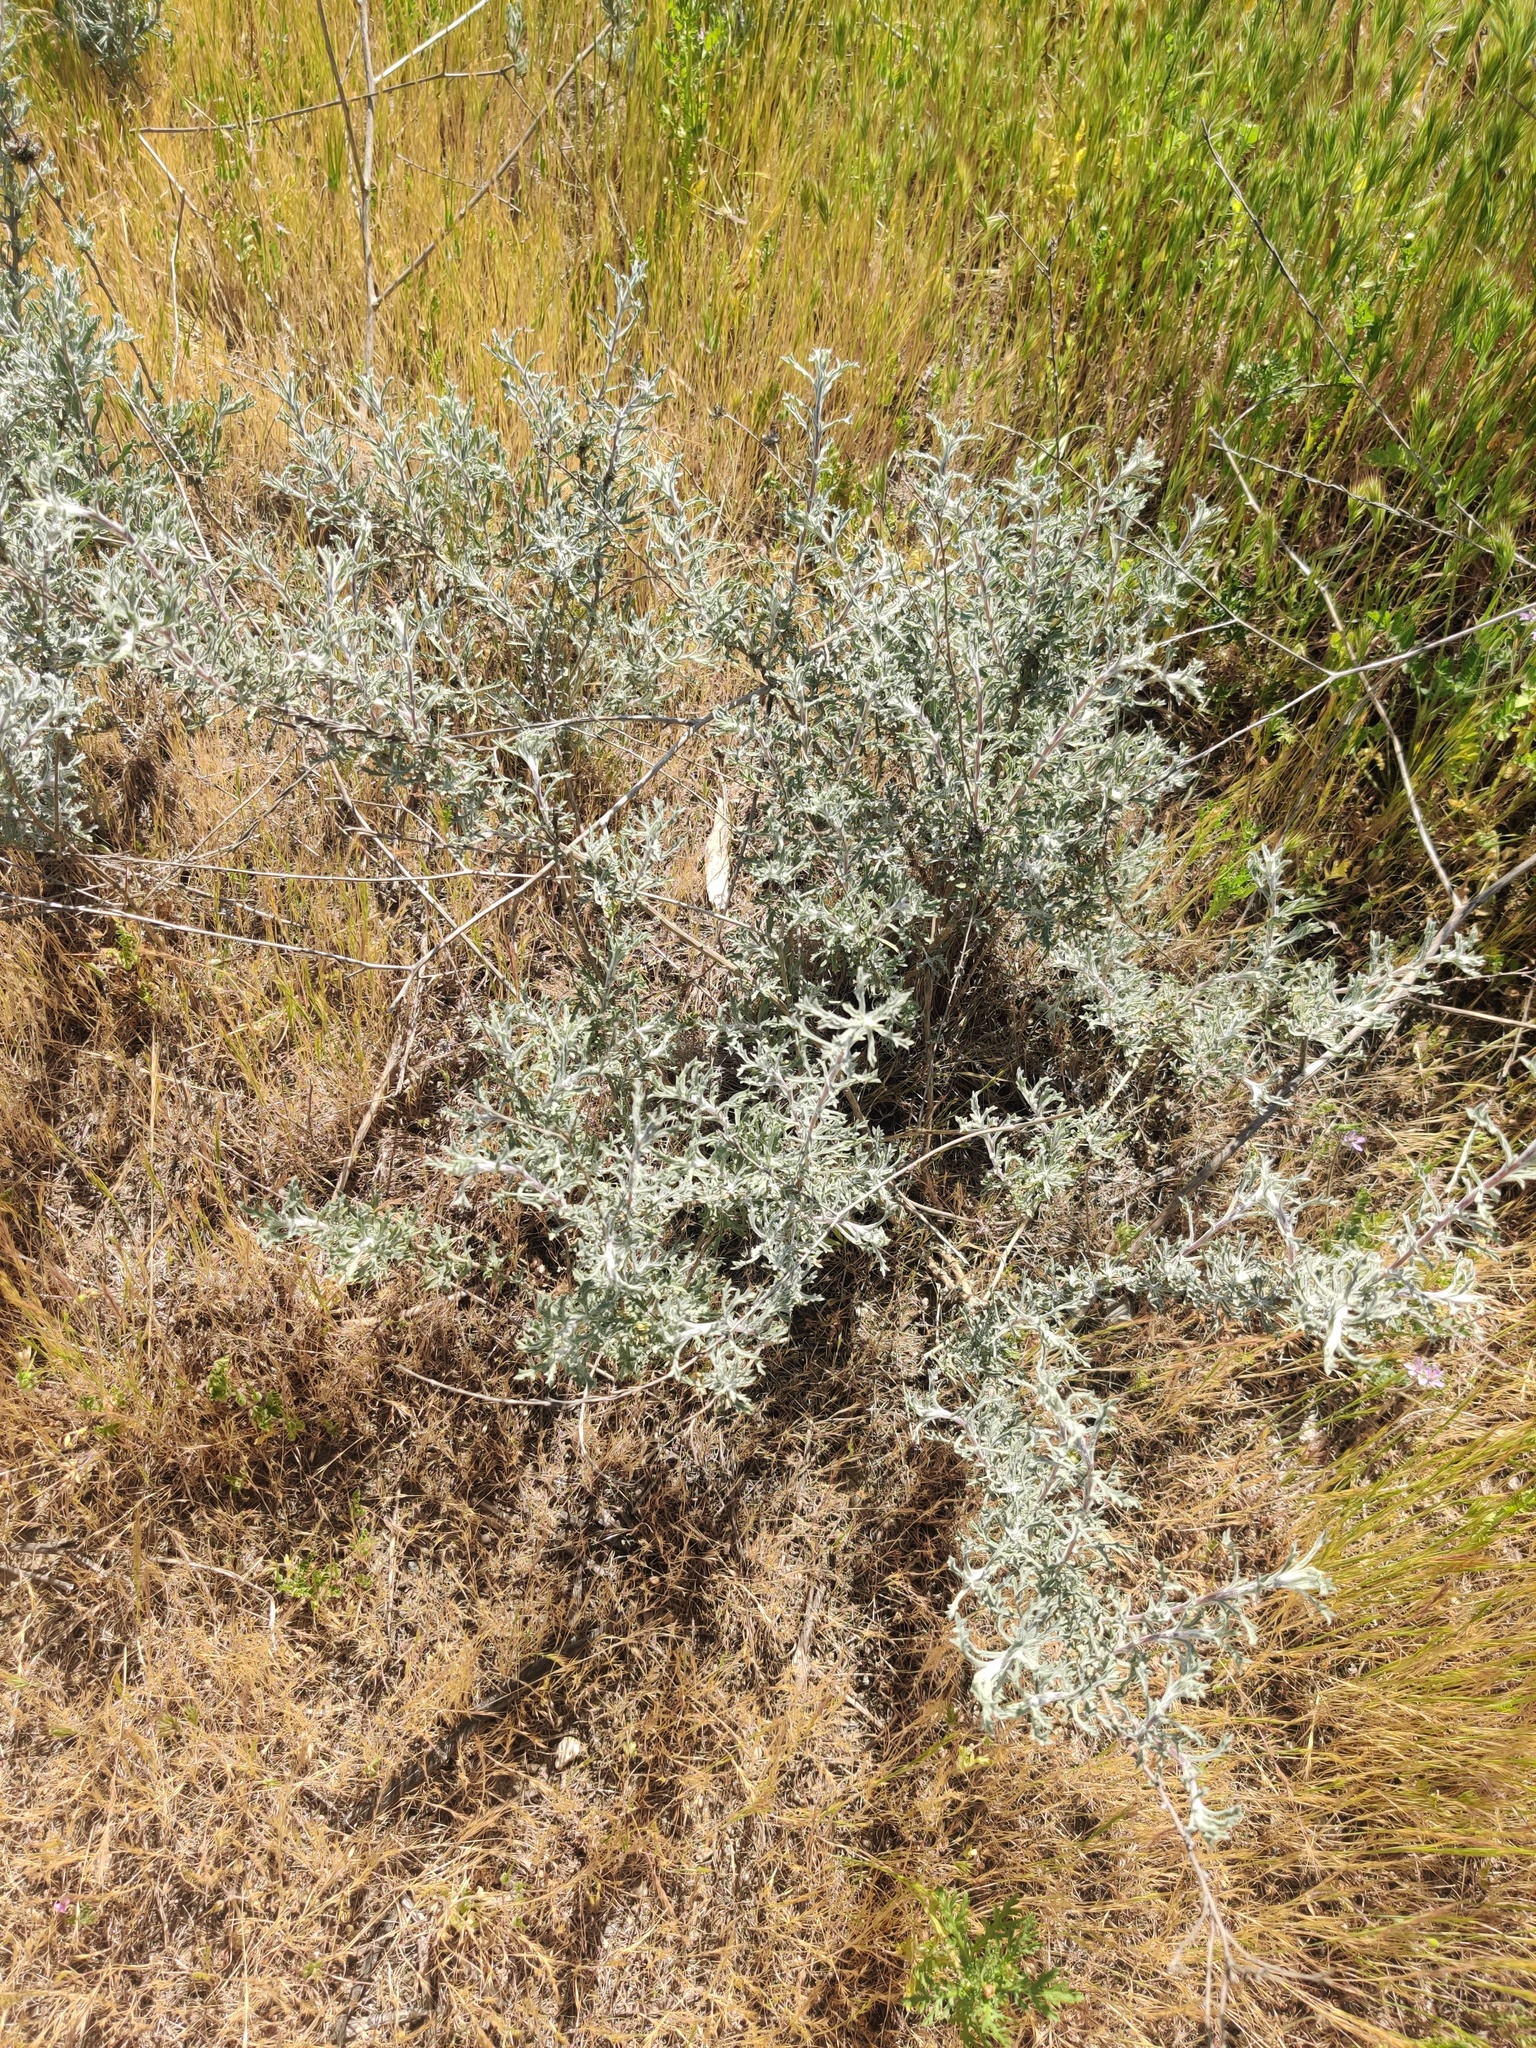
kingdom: Plantae
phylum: Tracheophyta
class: Magnoliopsida
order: Asterales
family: Asteraceae
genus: Isocoma
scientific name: Isocoma menziesii
